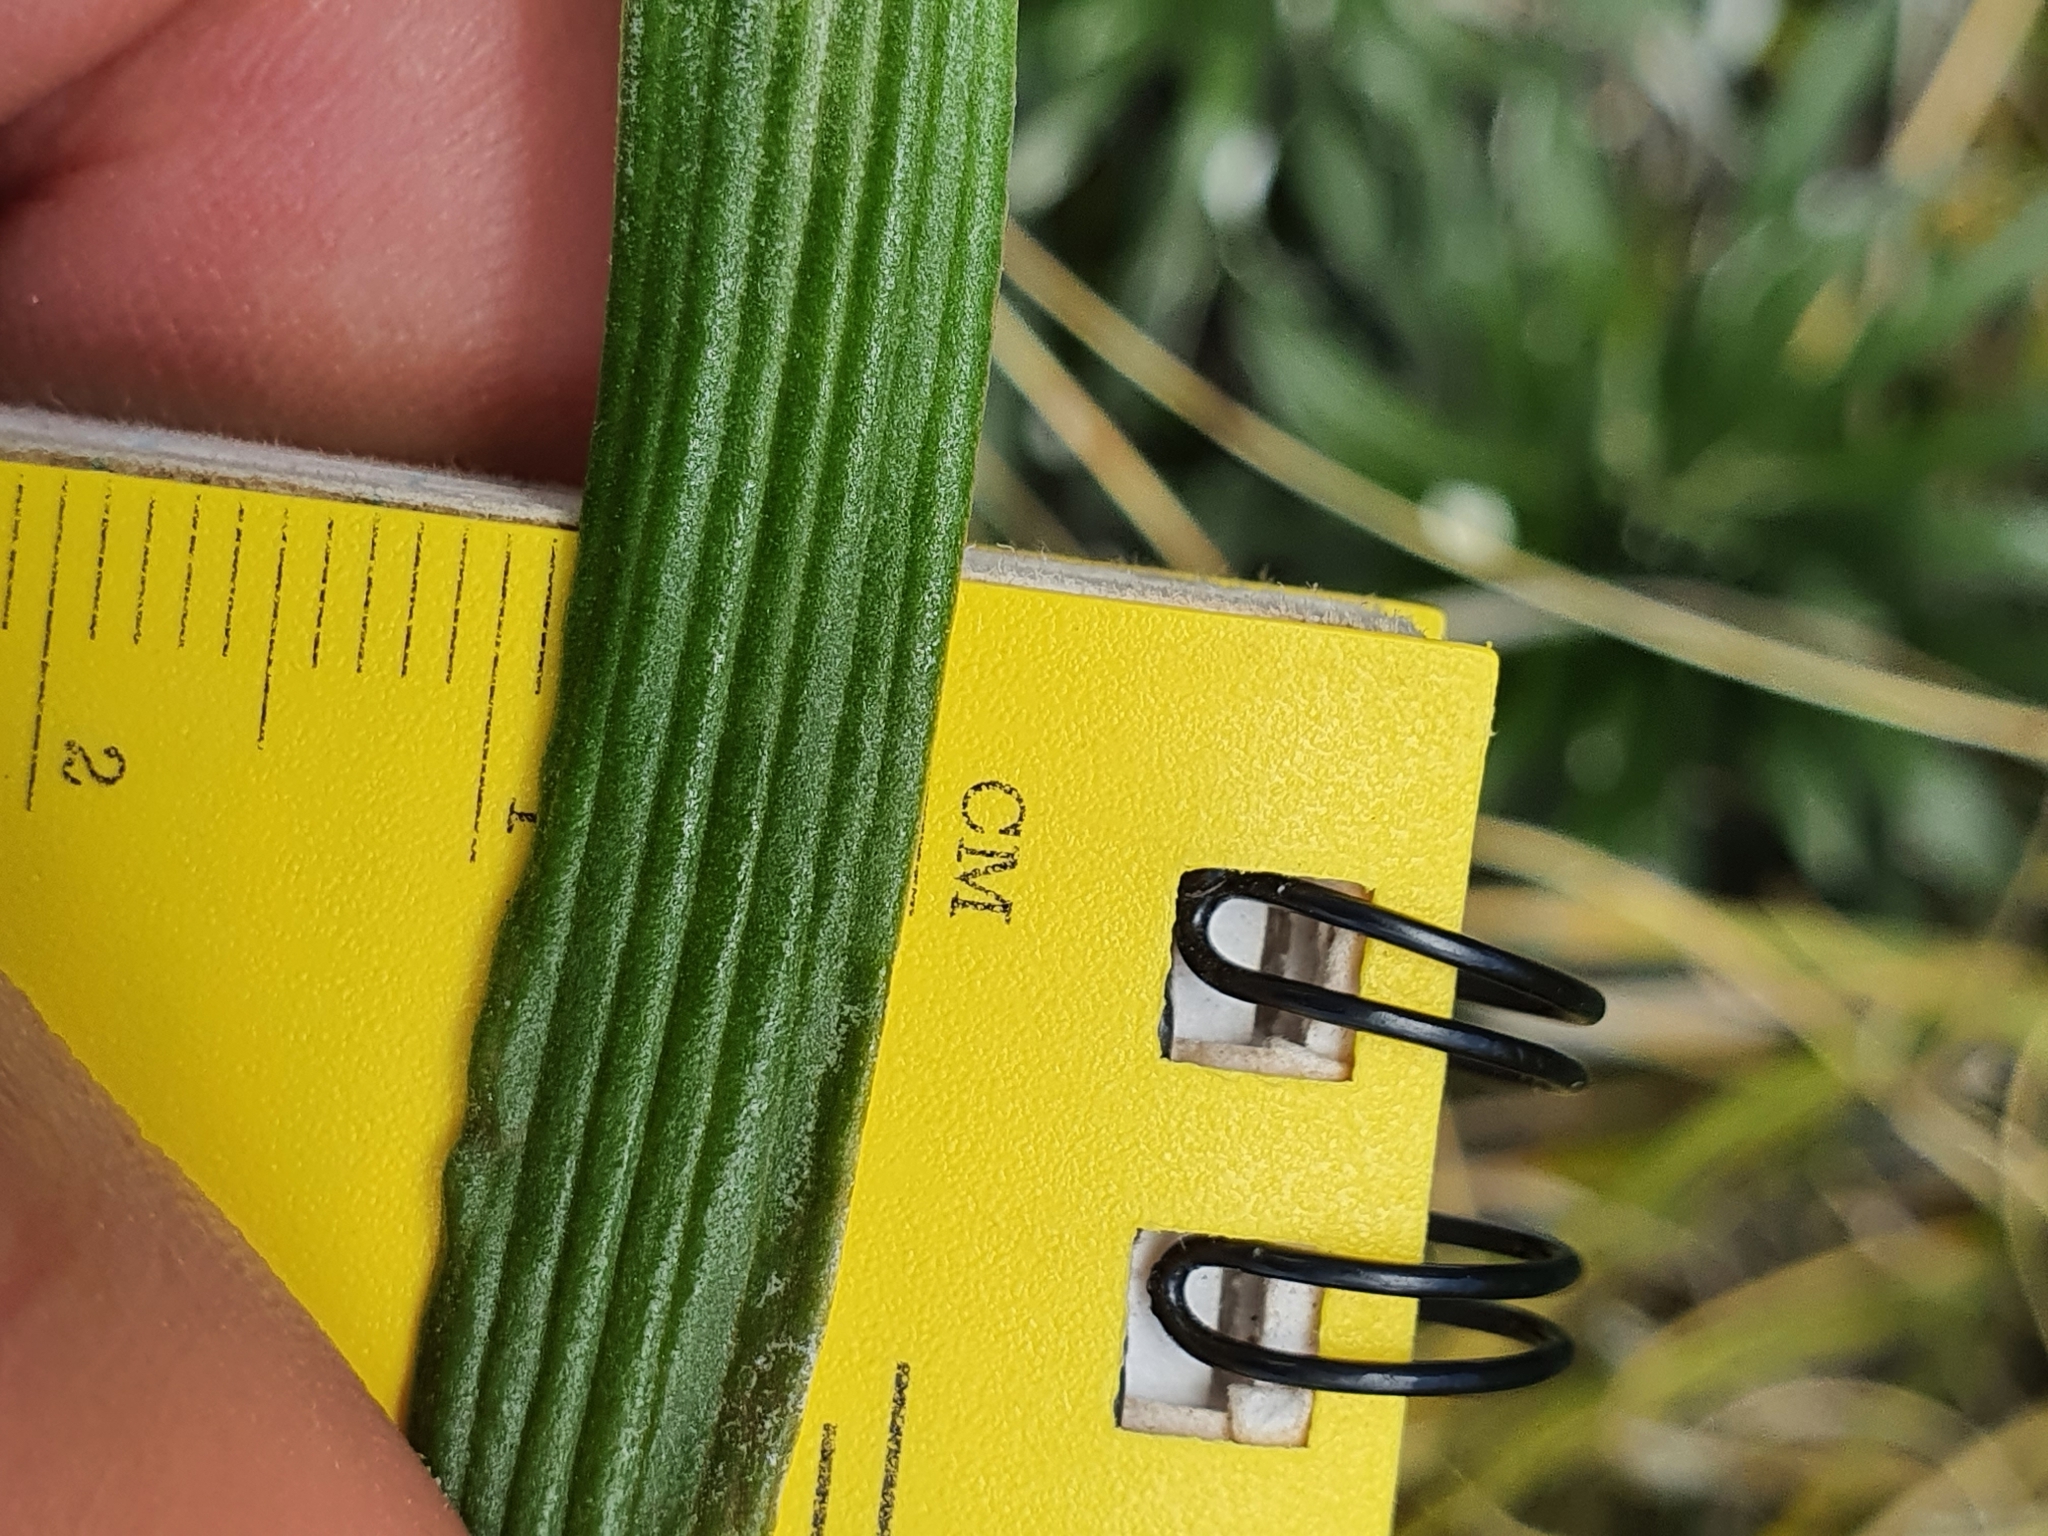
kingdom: Plantae
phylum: Tracheophyta
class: Magnoliopsida
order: Asterales
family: Asteraceae
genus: Celmisia
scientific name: Celmisia viscosa
